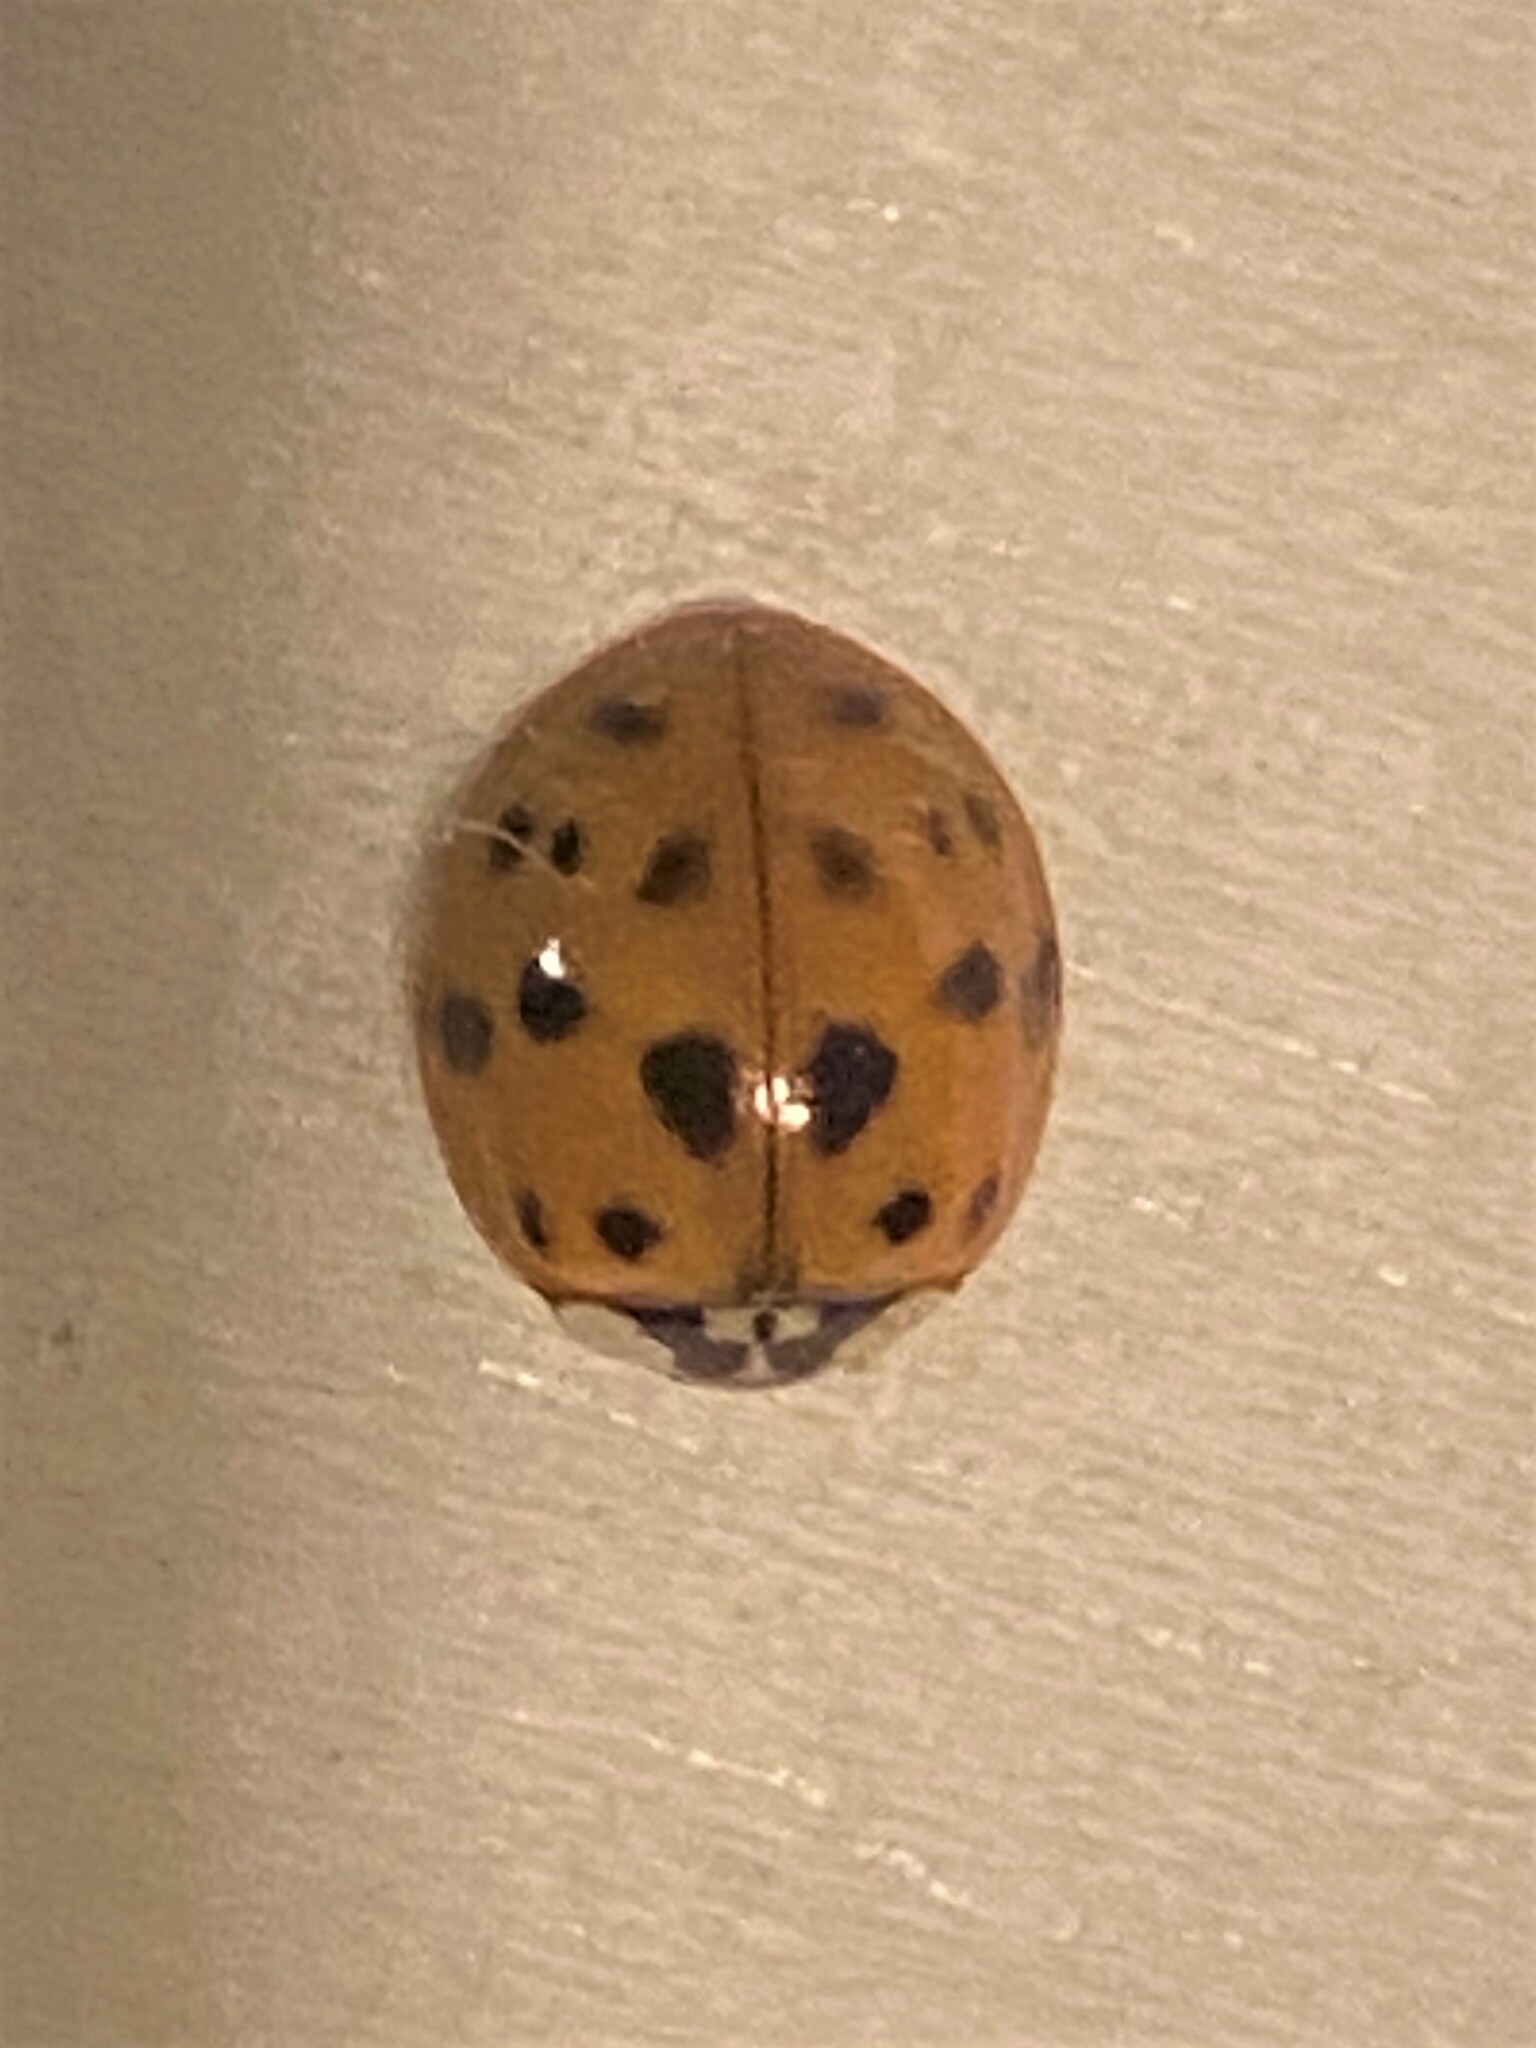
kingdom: Animalia
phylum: Arthropoda
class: Insecta
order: Coleoptera
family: Coccinellidae
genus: Harmonia
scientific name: Harmonia axyridis
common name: Harlequin ladybird
